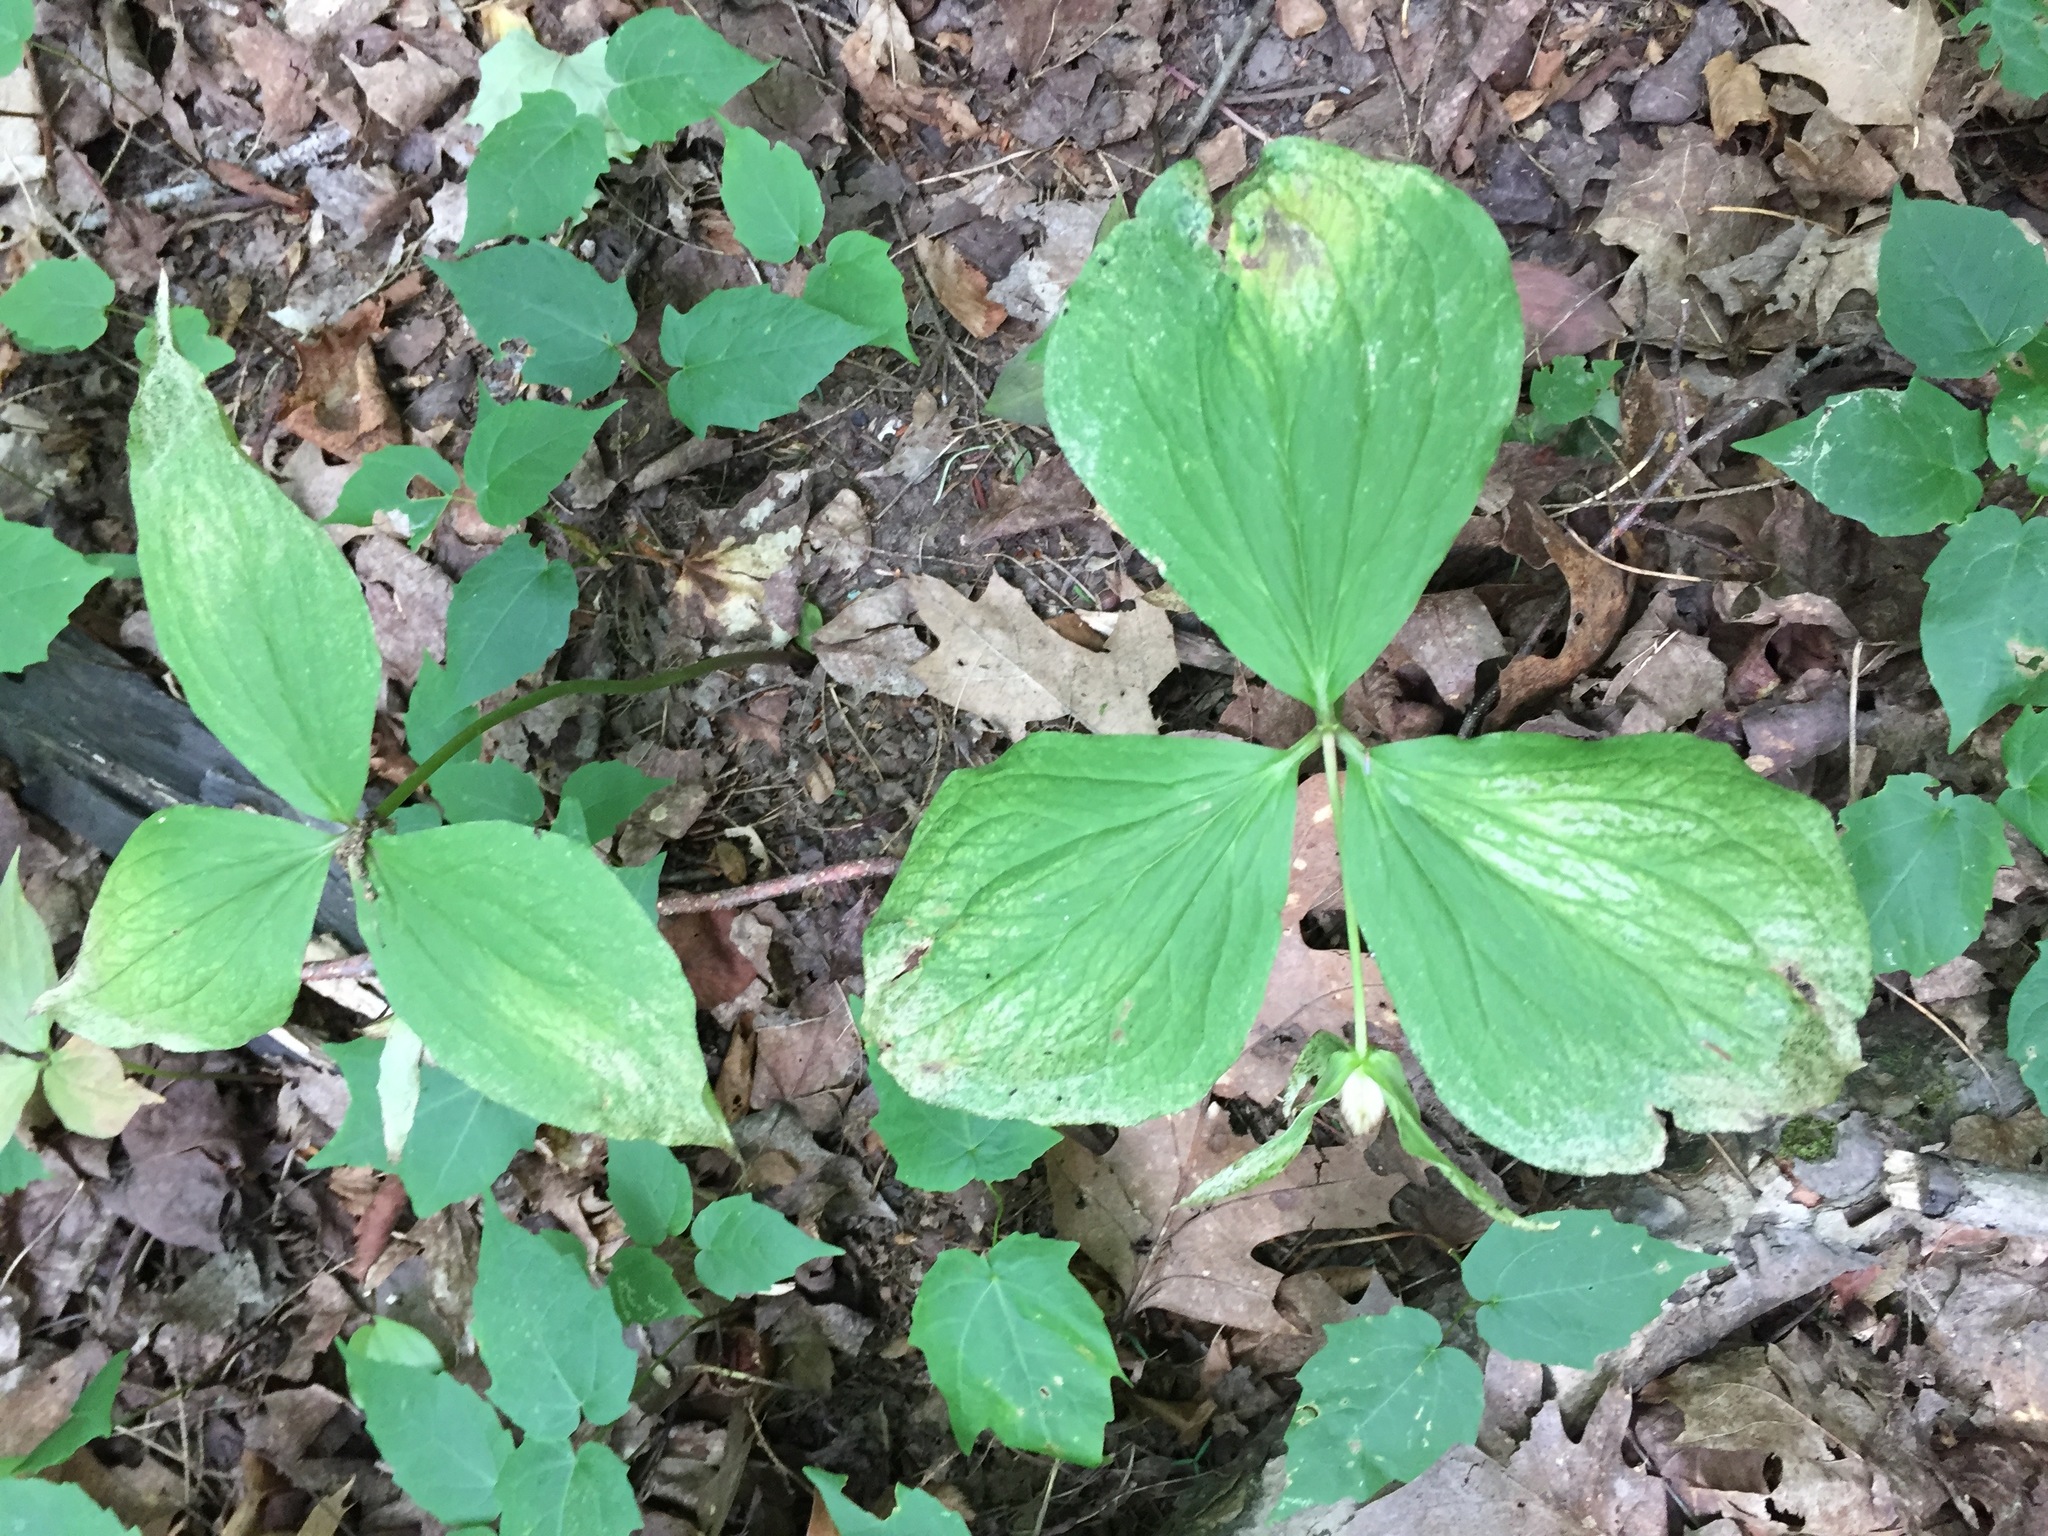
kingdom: Plantae
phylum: Tracheophyta
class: Liliopsida
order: Liliales
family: Melanthiaceae
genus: Trillium
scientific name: Trillium grandiflorum
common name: Great white trillium
